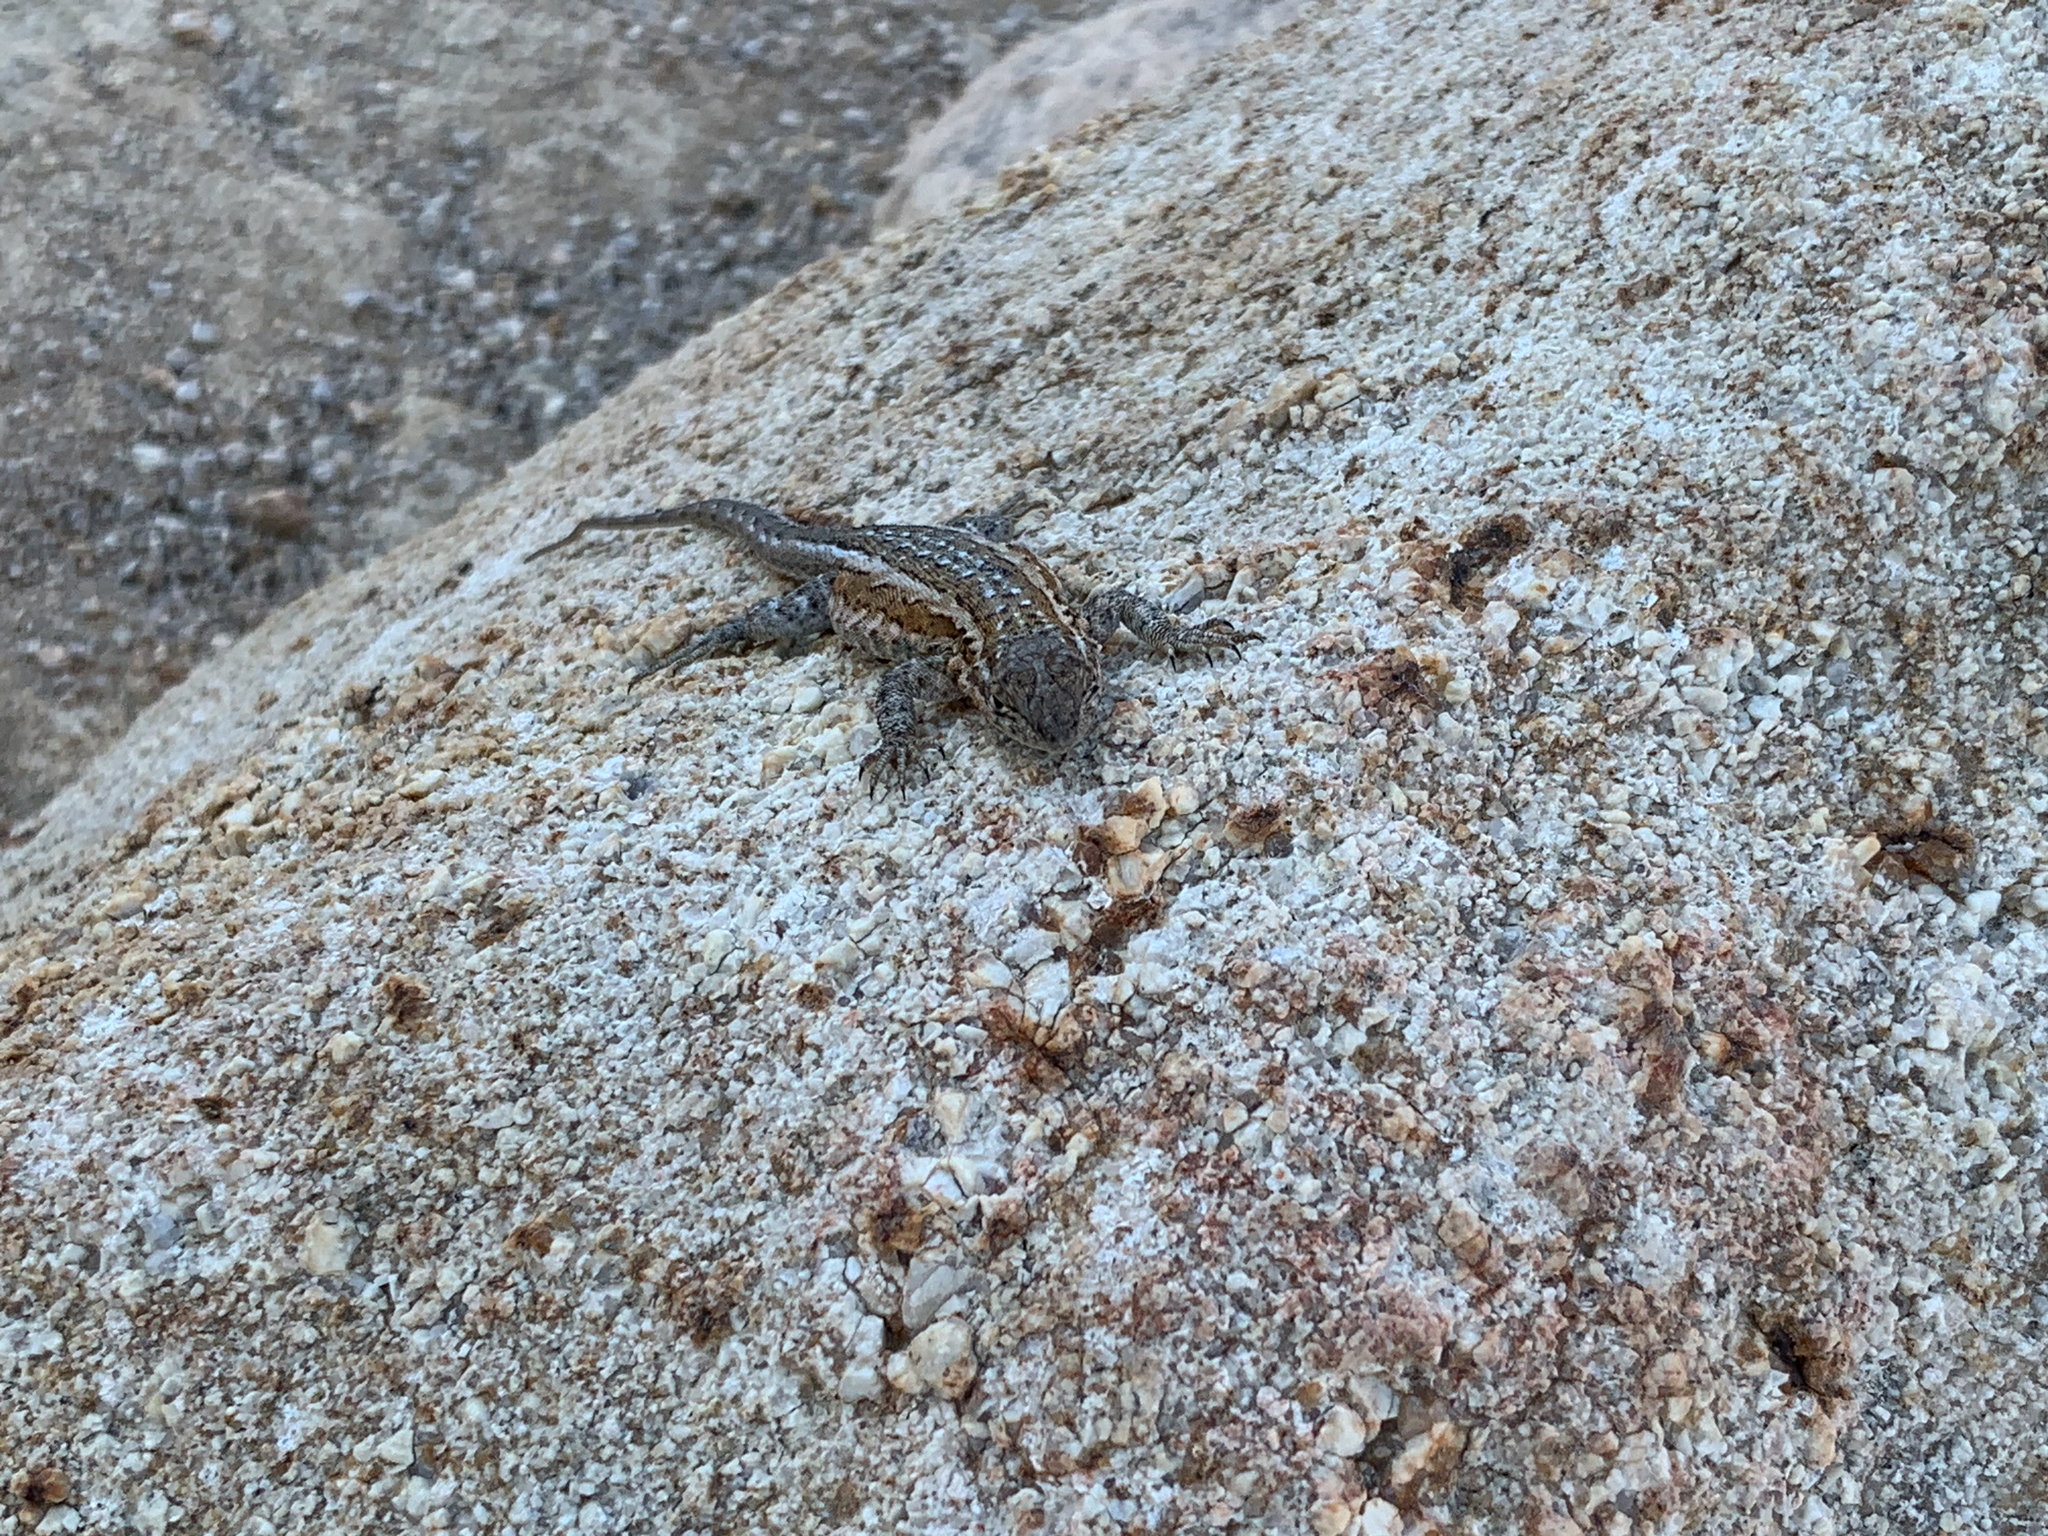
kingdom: Animalia
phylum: Chordata
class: Squamata
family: Phrynosomatidae
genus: Uta
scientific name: Uta stansburiana
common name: Side-blotched lizard
